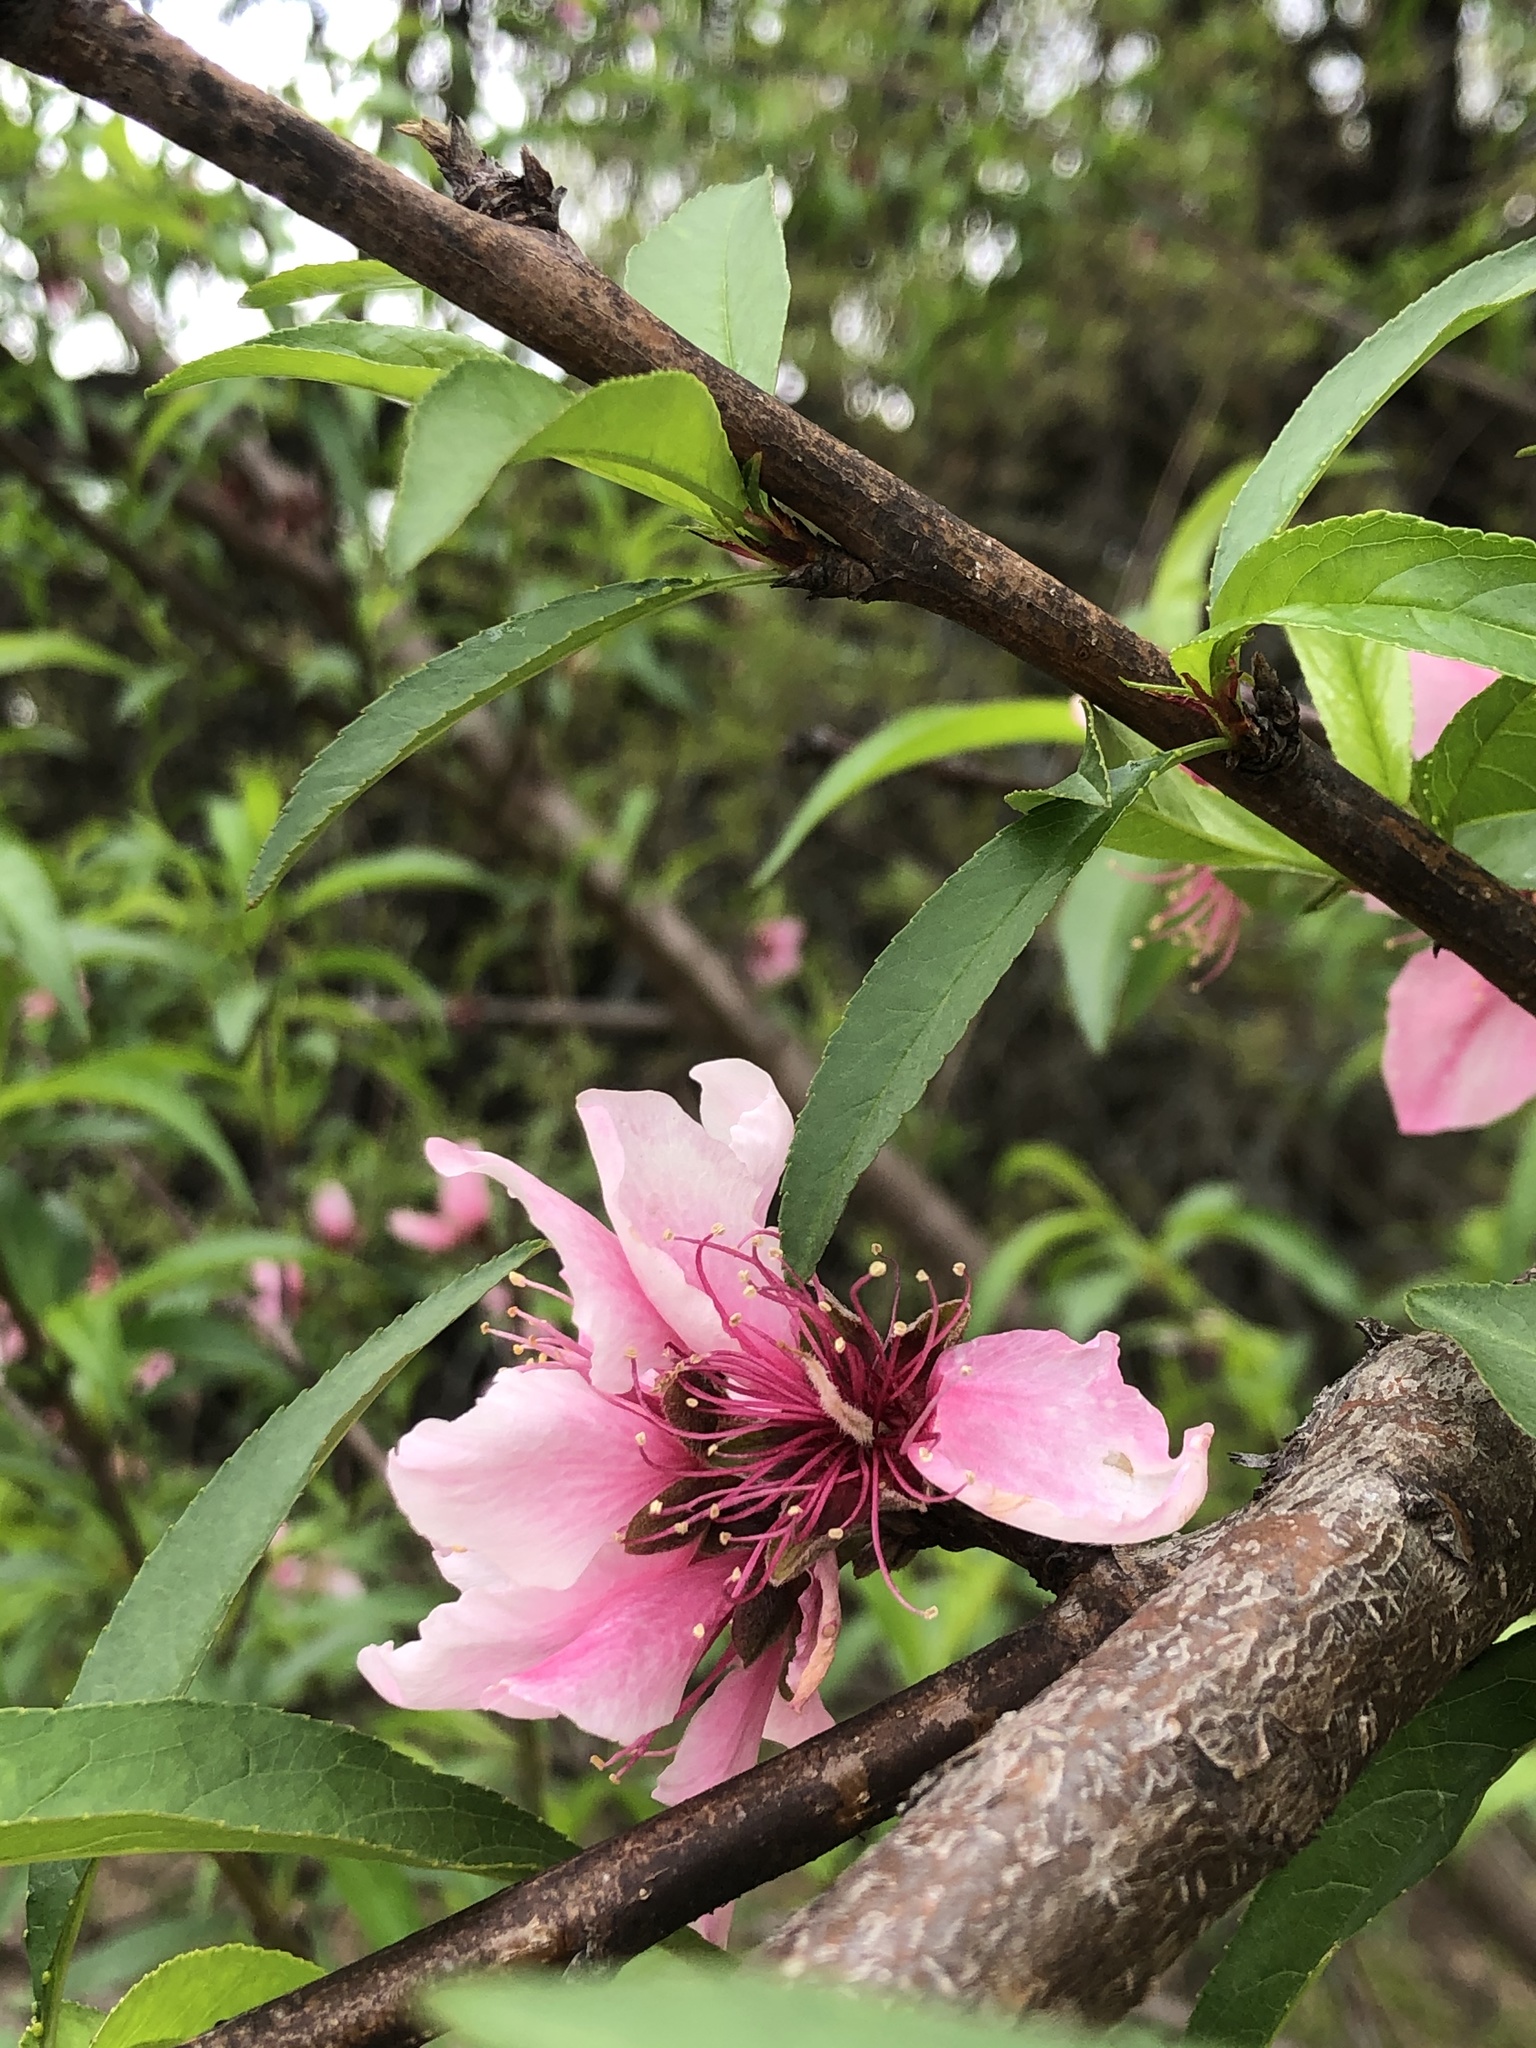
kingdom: Plantae
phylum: Tracheophyta
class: Magnoliopsida
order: Rosales
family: Rosaceae
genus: Prunus
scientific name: Prunus persica
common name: Peach
